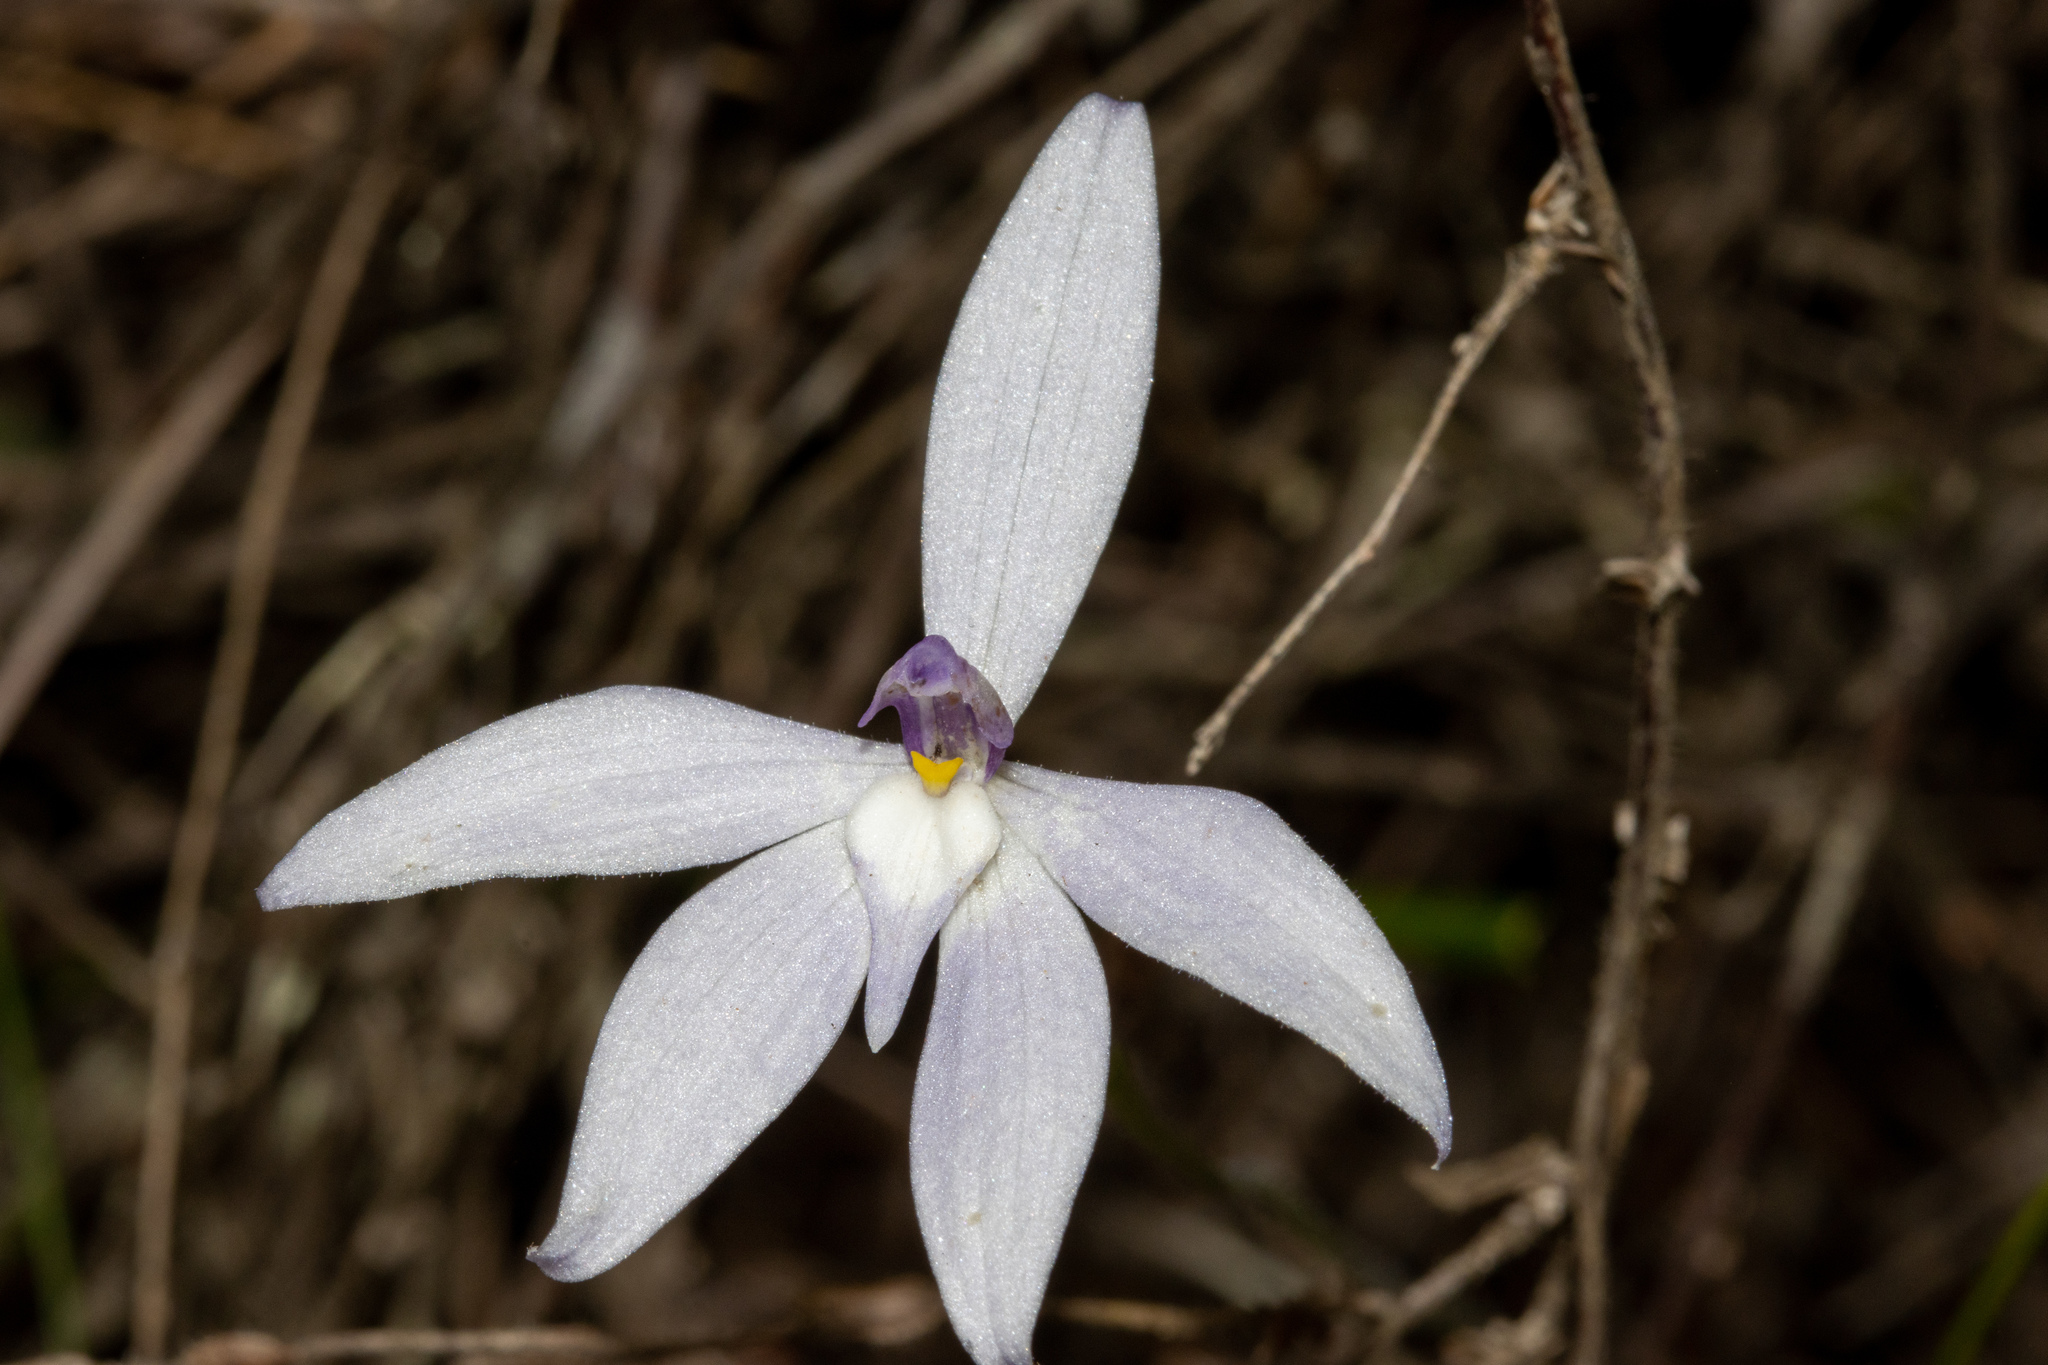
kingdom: Plantae
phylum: Tracheophyta
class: Liliopsida
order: Asparagales
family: Orchidaceae
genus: Caladenia
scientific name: Caladenia major
